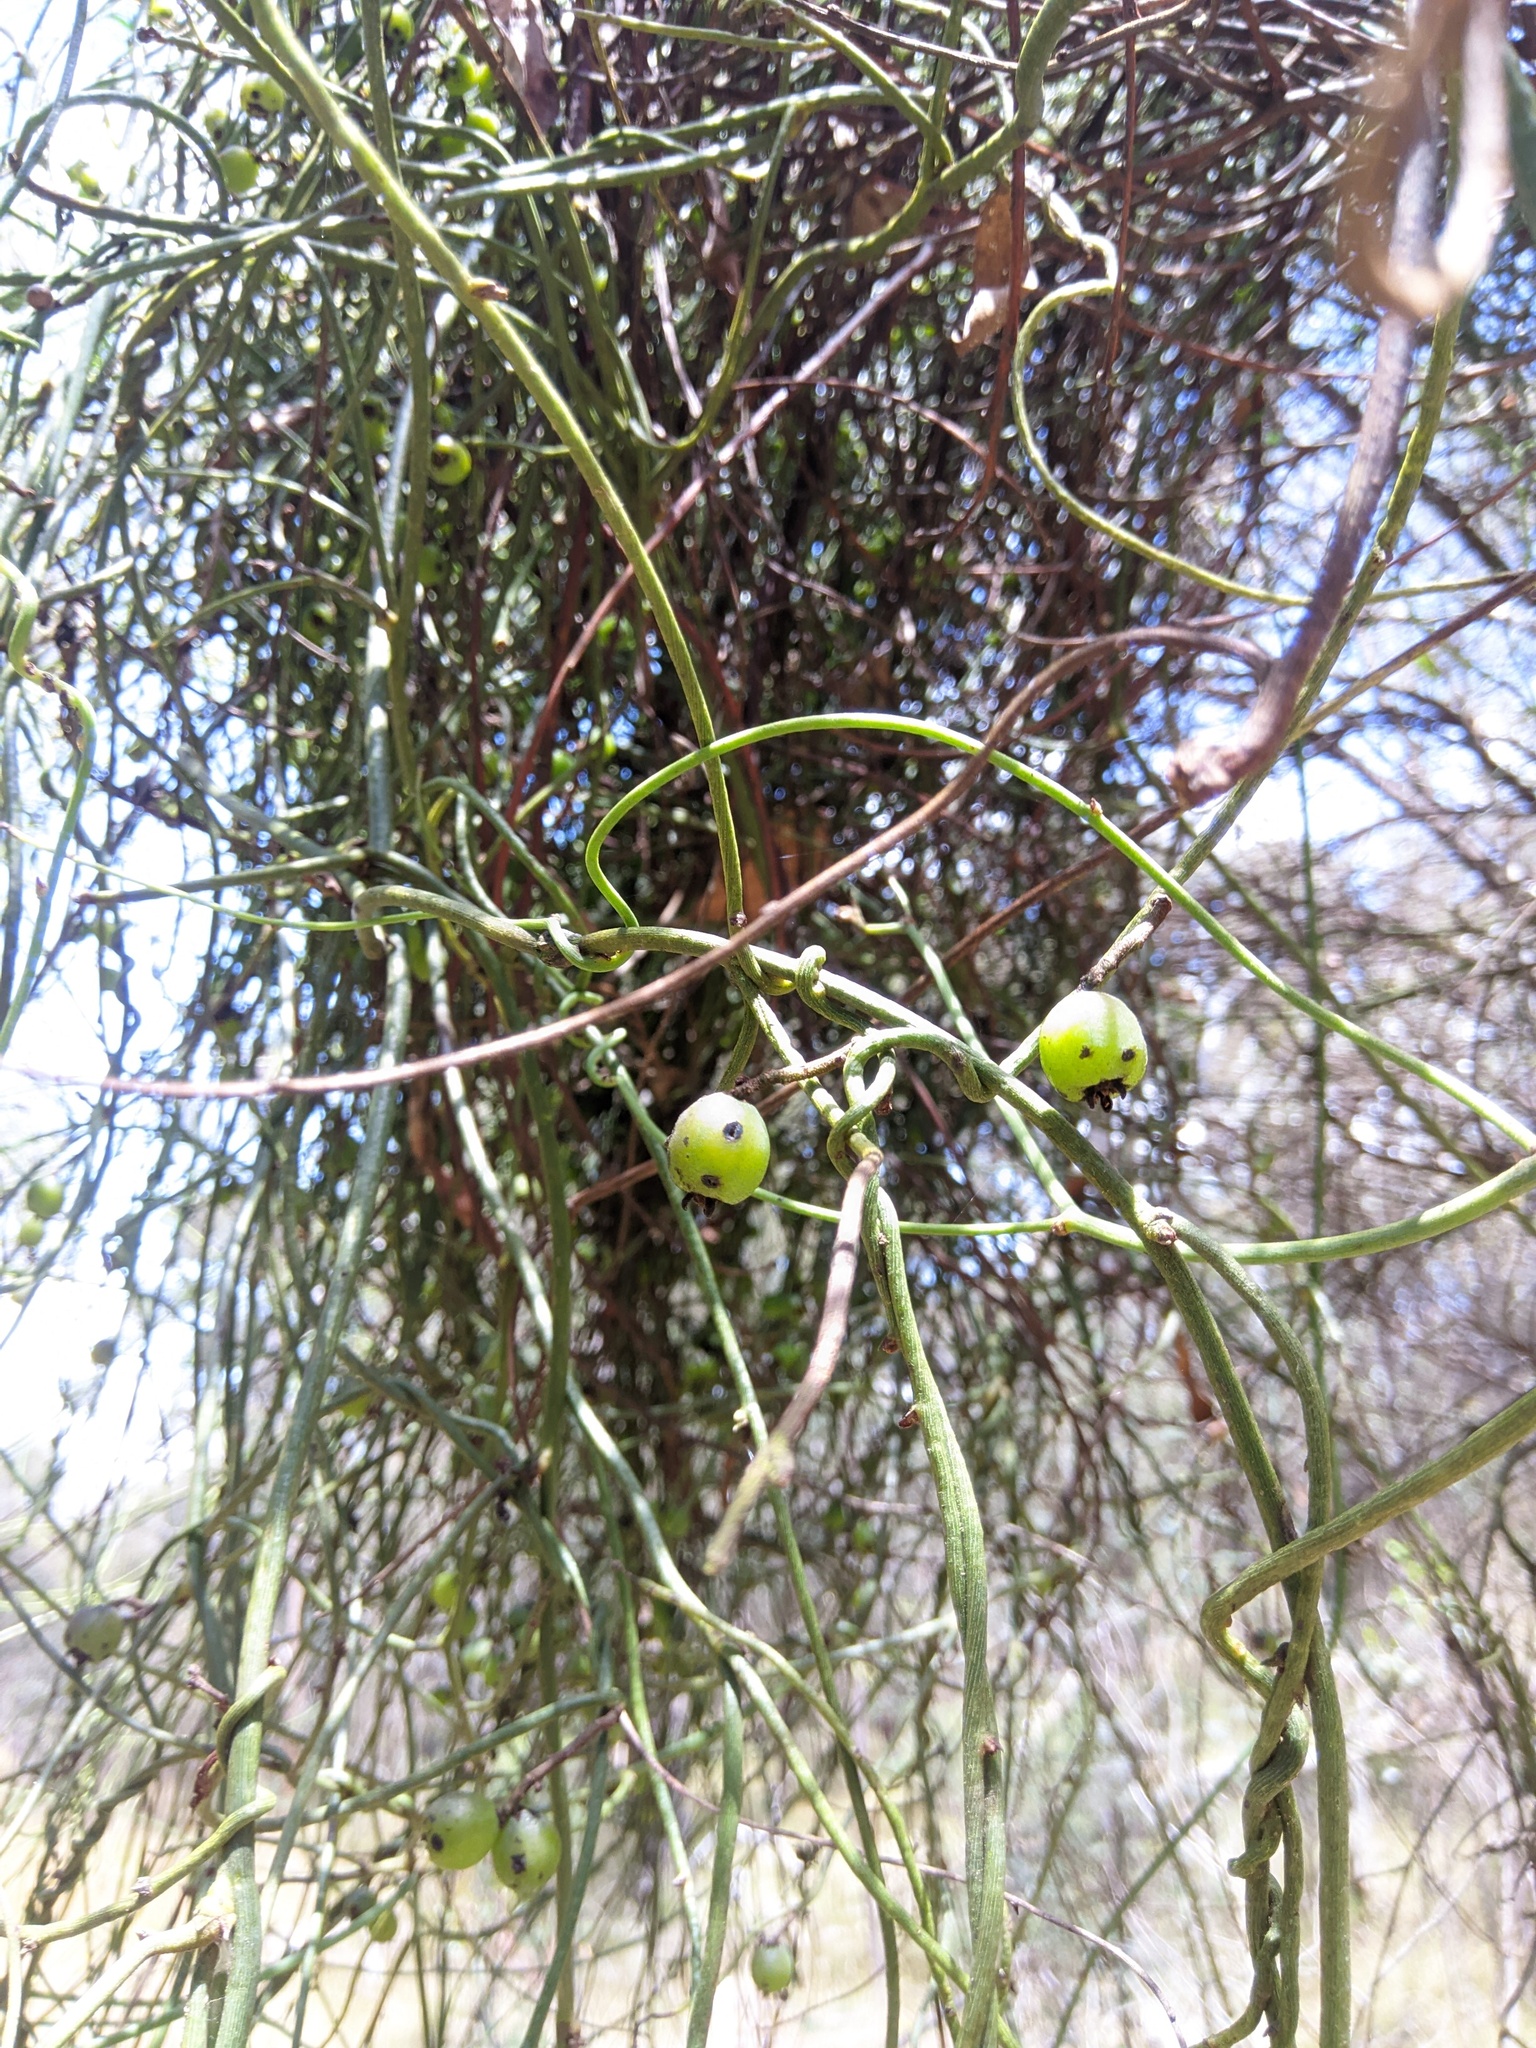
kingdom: Plantae
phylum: Tracheophyta
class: Magnoliopsida
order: Laurales
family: Lauraceae
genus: Cassytha
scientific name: Cassytha melantha
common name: Mallee stranglevine
